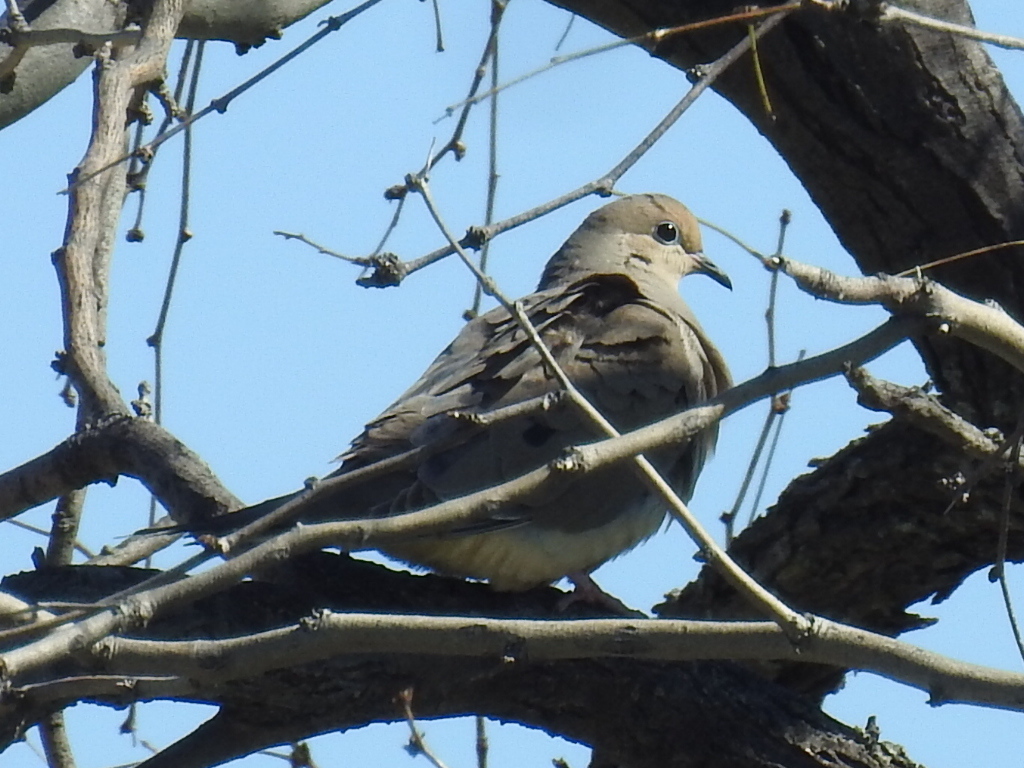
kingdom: Animalia
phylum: Chordata
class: Aves
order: Columbiformes
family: Columbidae
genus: Zenaida
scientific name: Zenaida macroura
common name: Mourning dove
